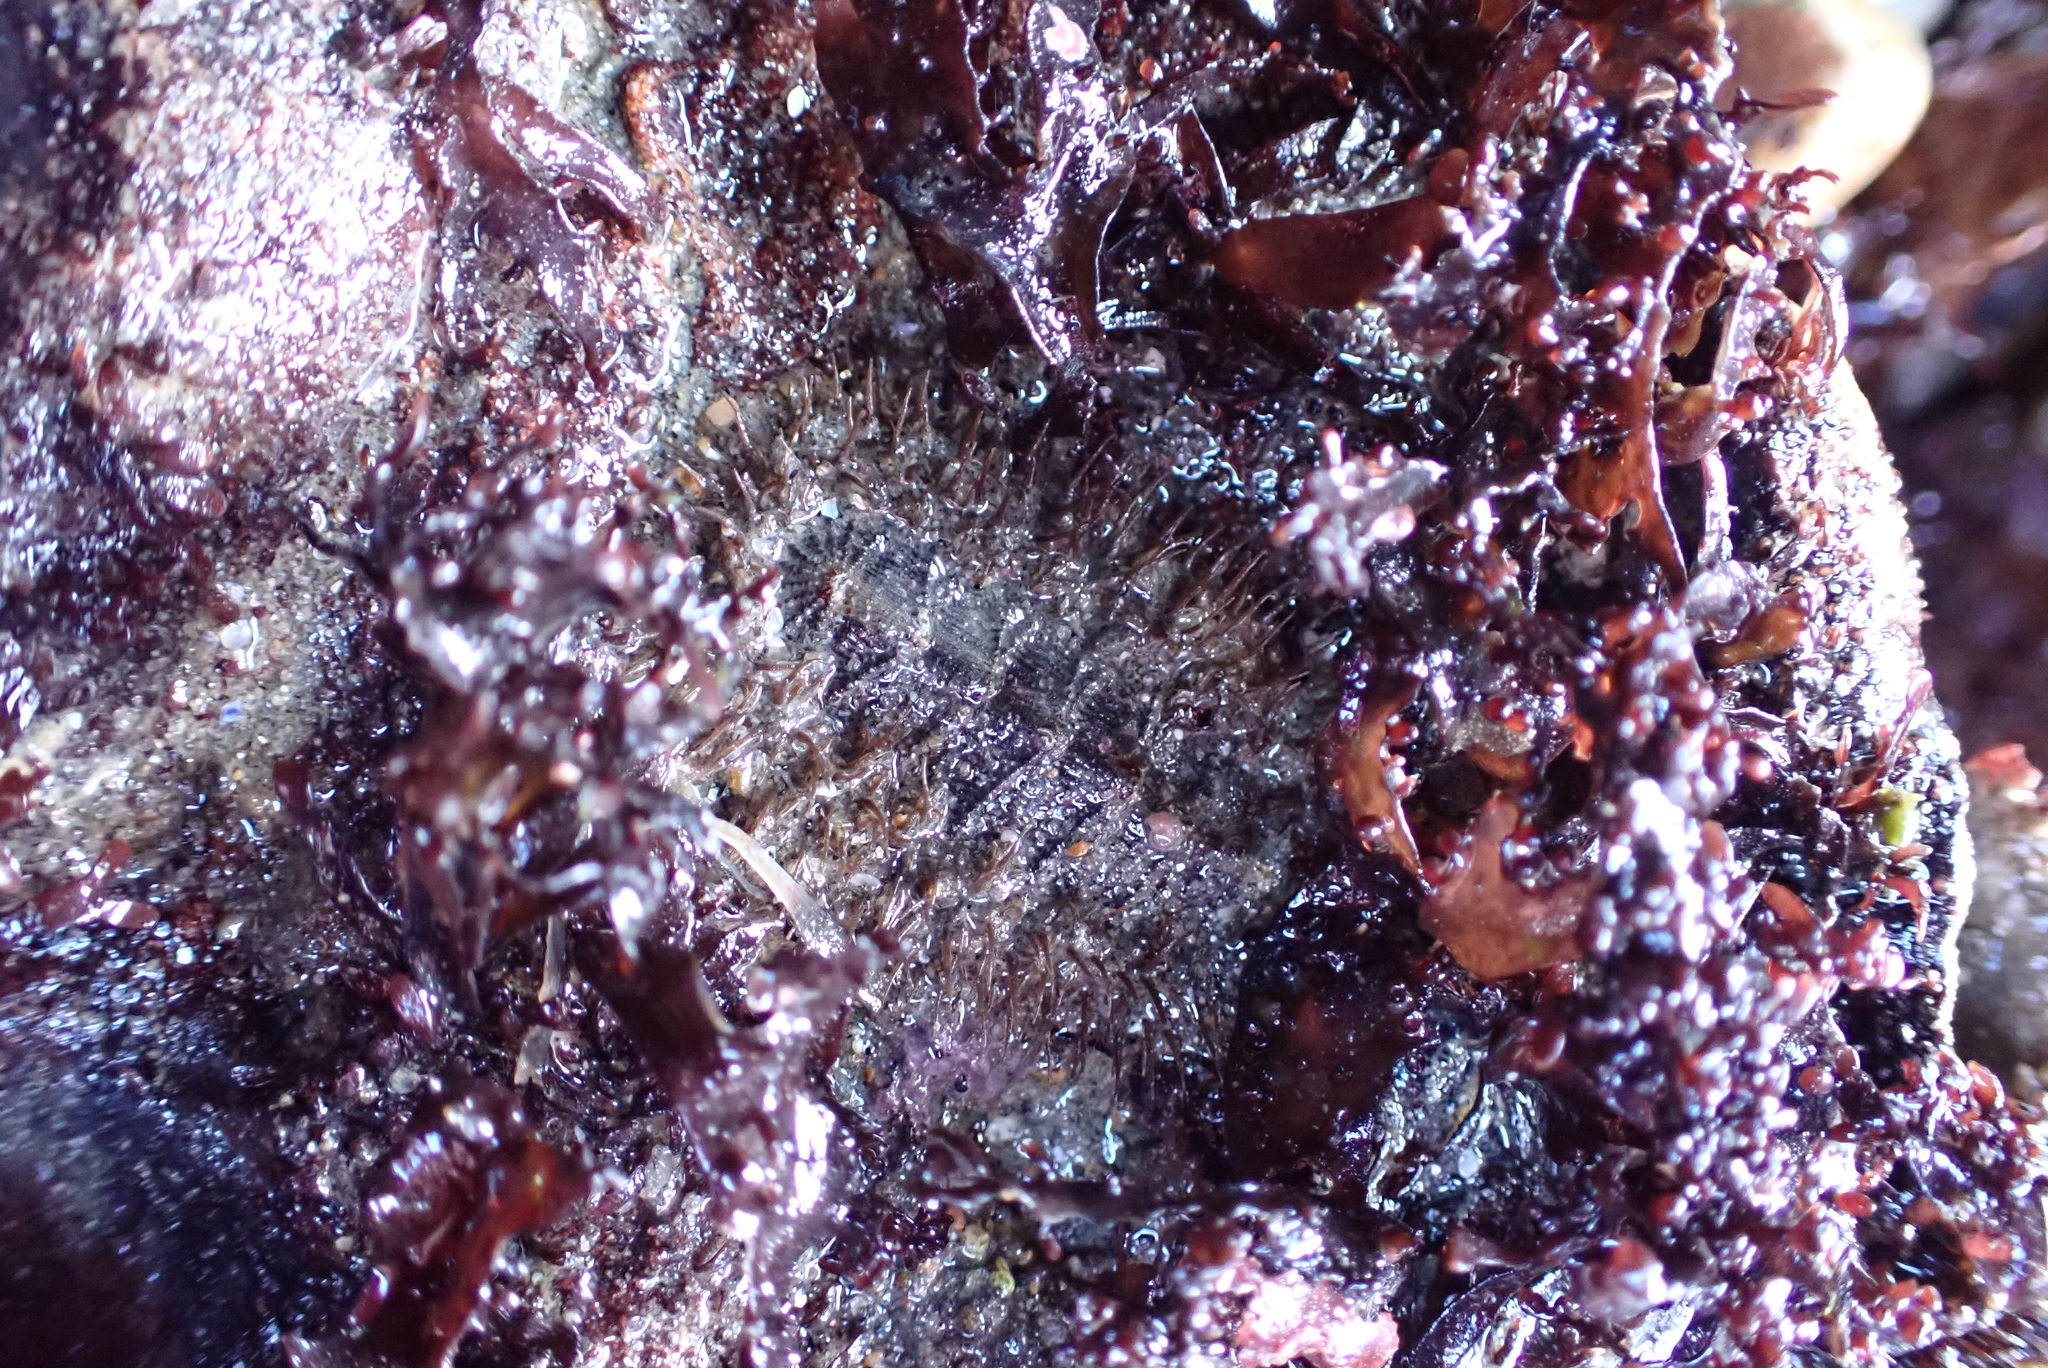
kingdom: Animalia
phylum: Mollusca
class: Polyplacophora
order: Chitonida
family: Mopaliidae
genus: Mopalia
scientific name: Mopalia muscosa
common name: Mossy chiton
